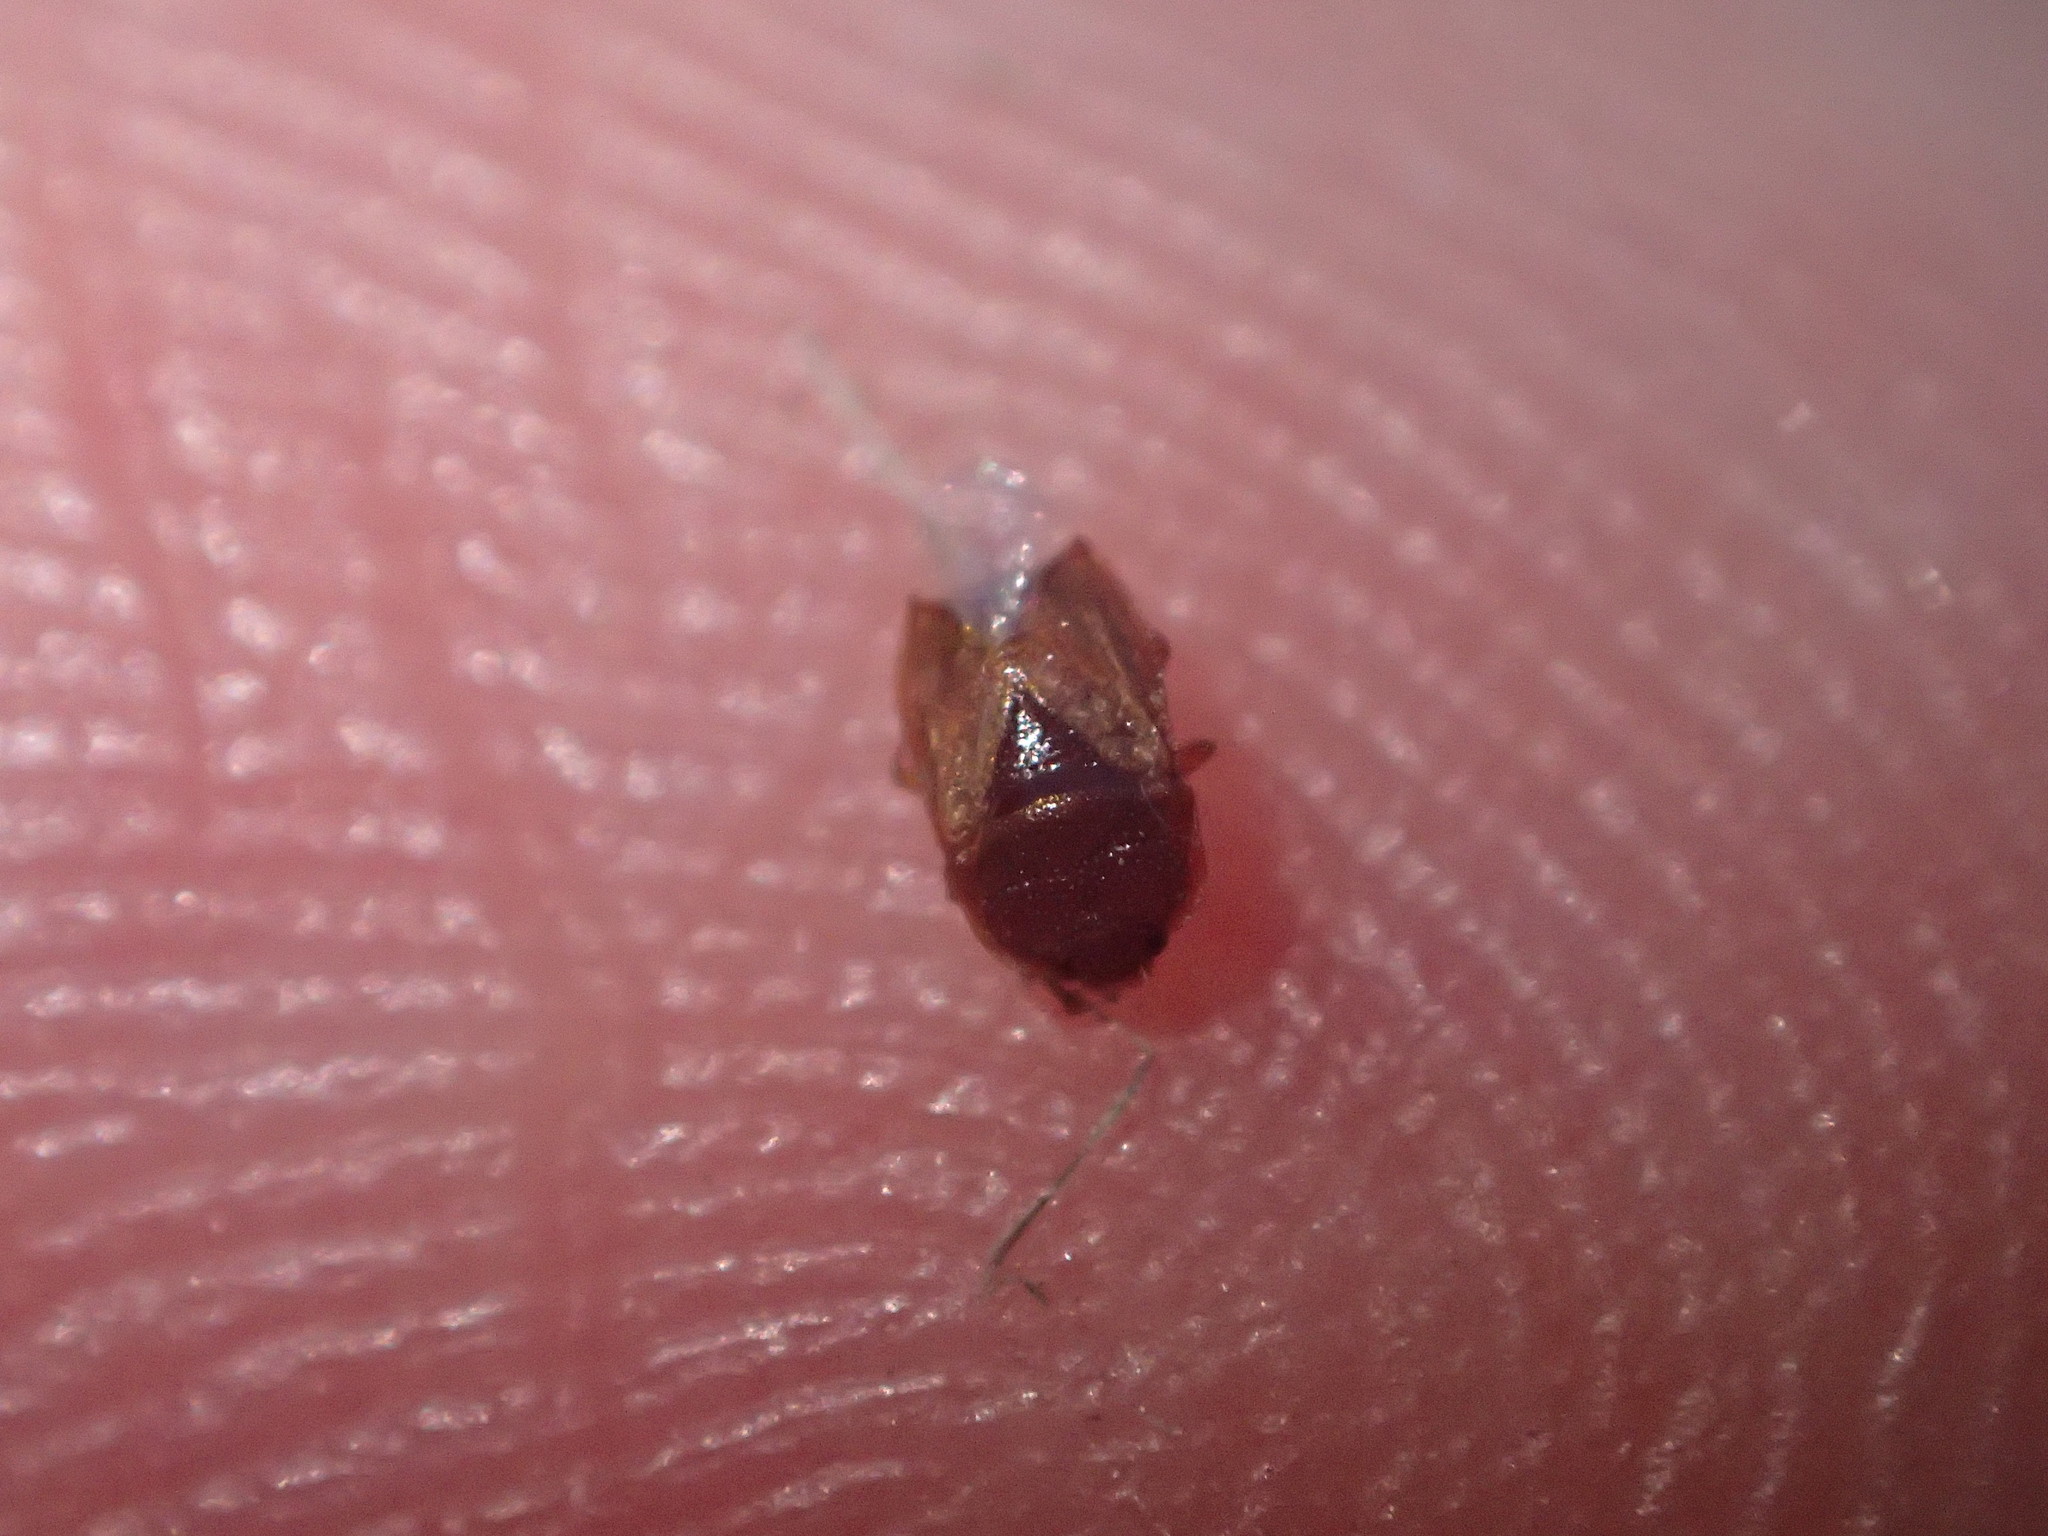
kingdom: Animalia
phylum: Arthropoda
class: Insecta
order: Hemiptera
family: Cydnidae
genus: Amnestus
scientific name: Amnestus
